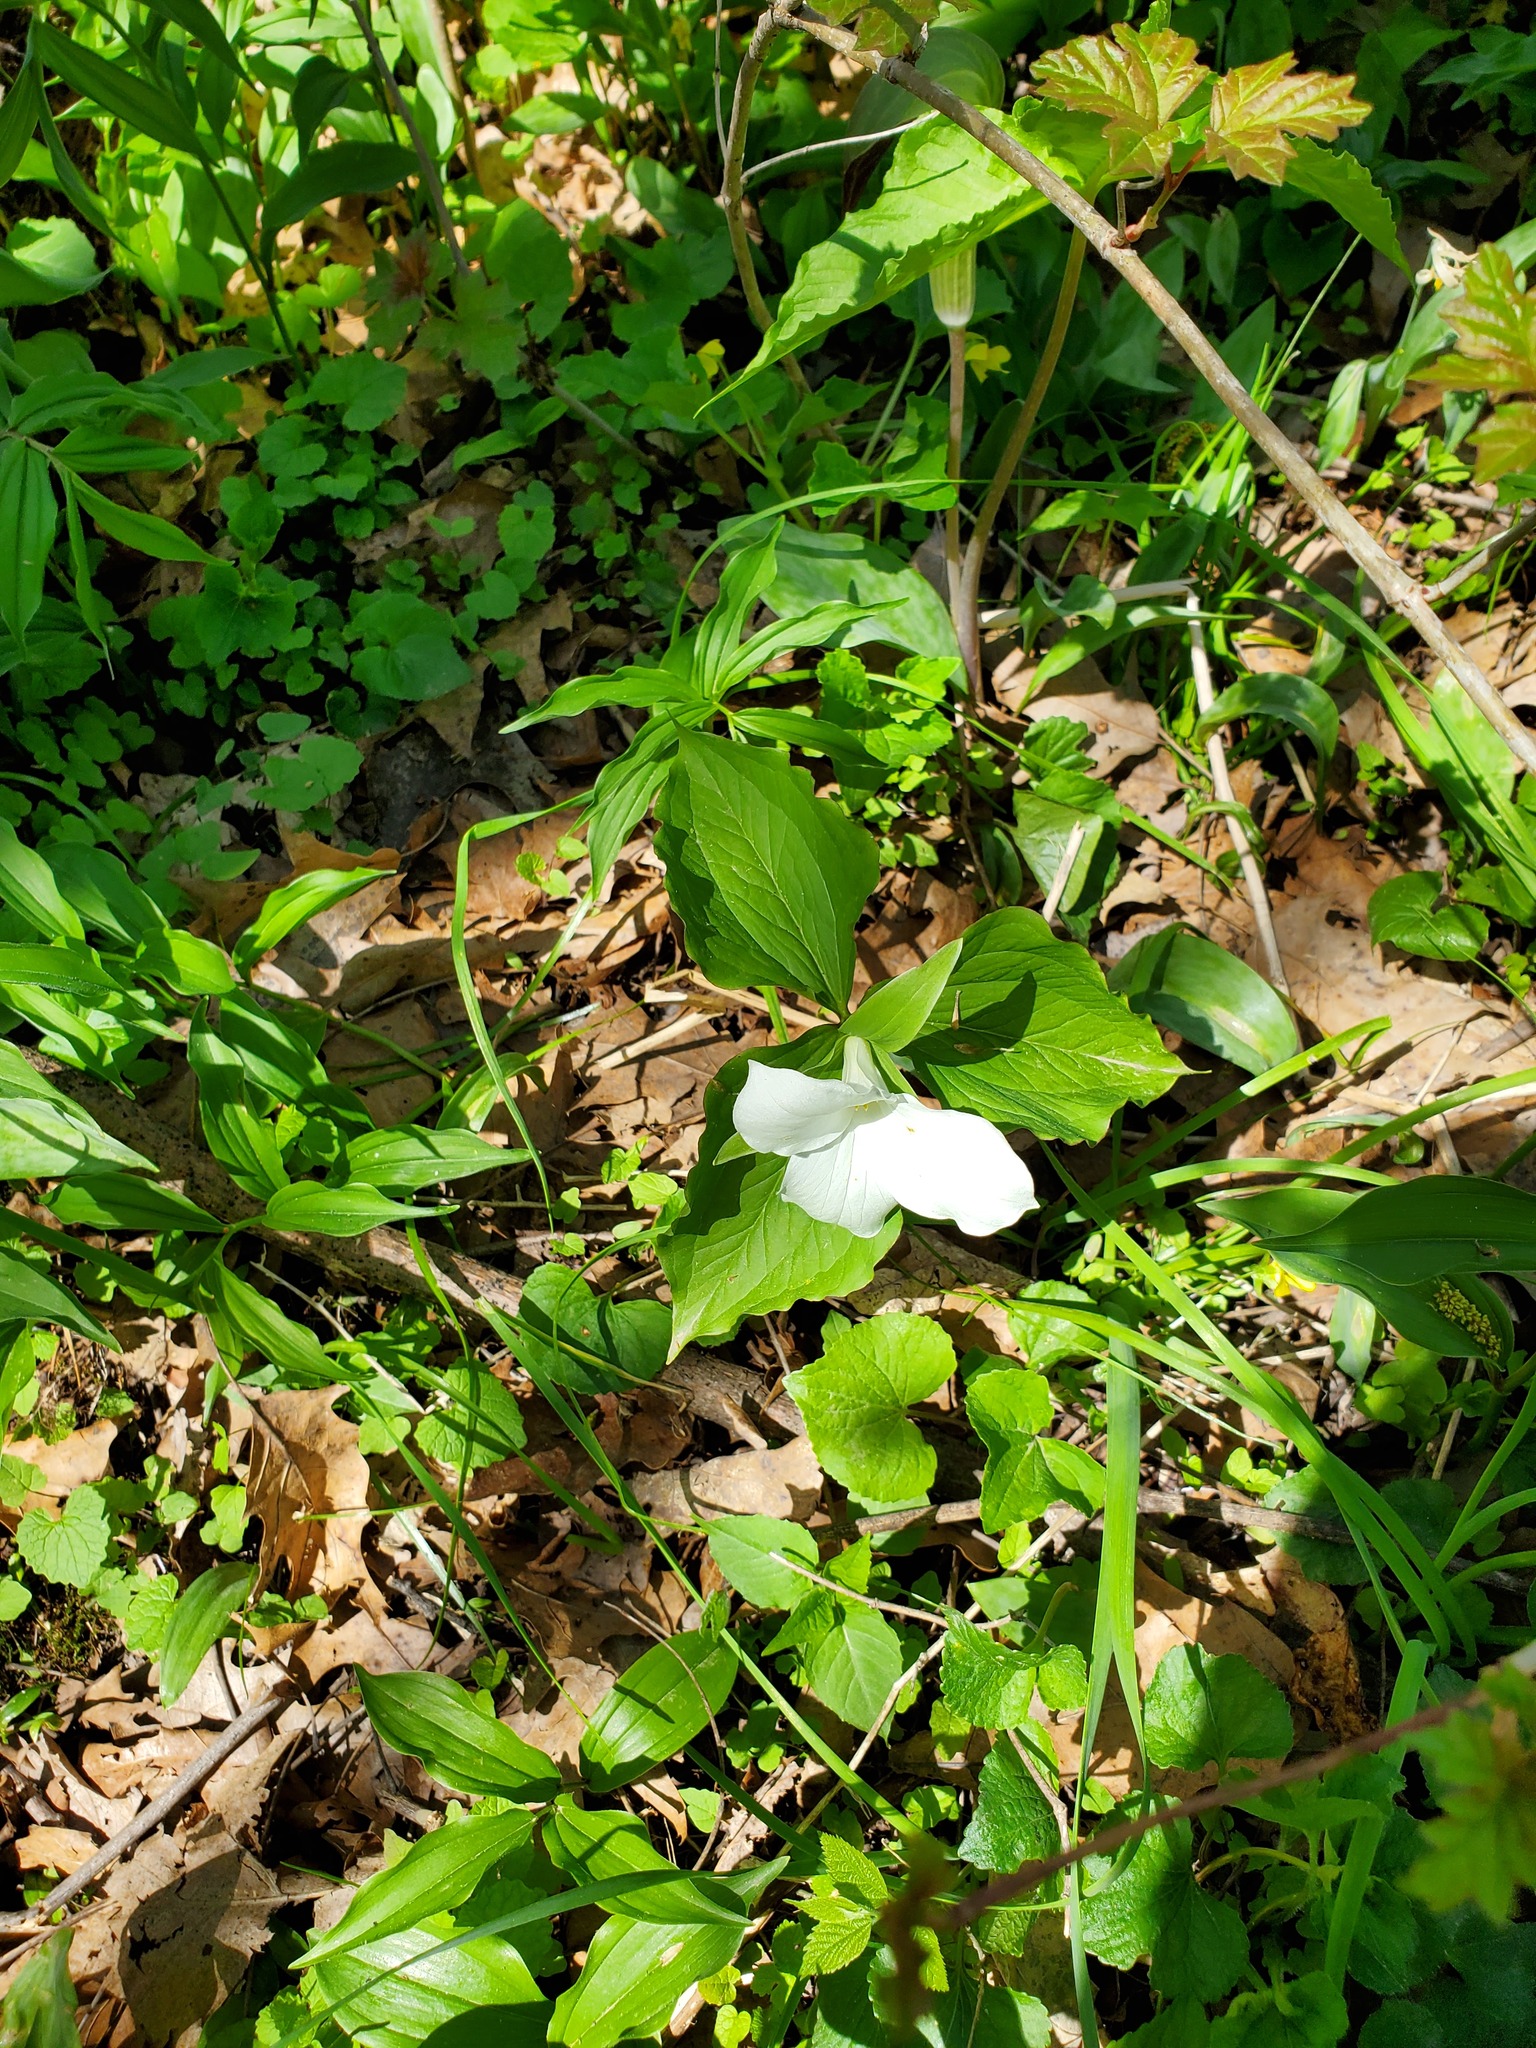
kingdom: Plantae
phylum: Tracheophyta
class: Liliopsida
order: Liliales
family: Melanthiaceae
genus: Trillium
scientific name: Trillium grandiflorum
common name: Great white trillium
